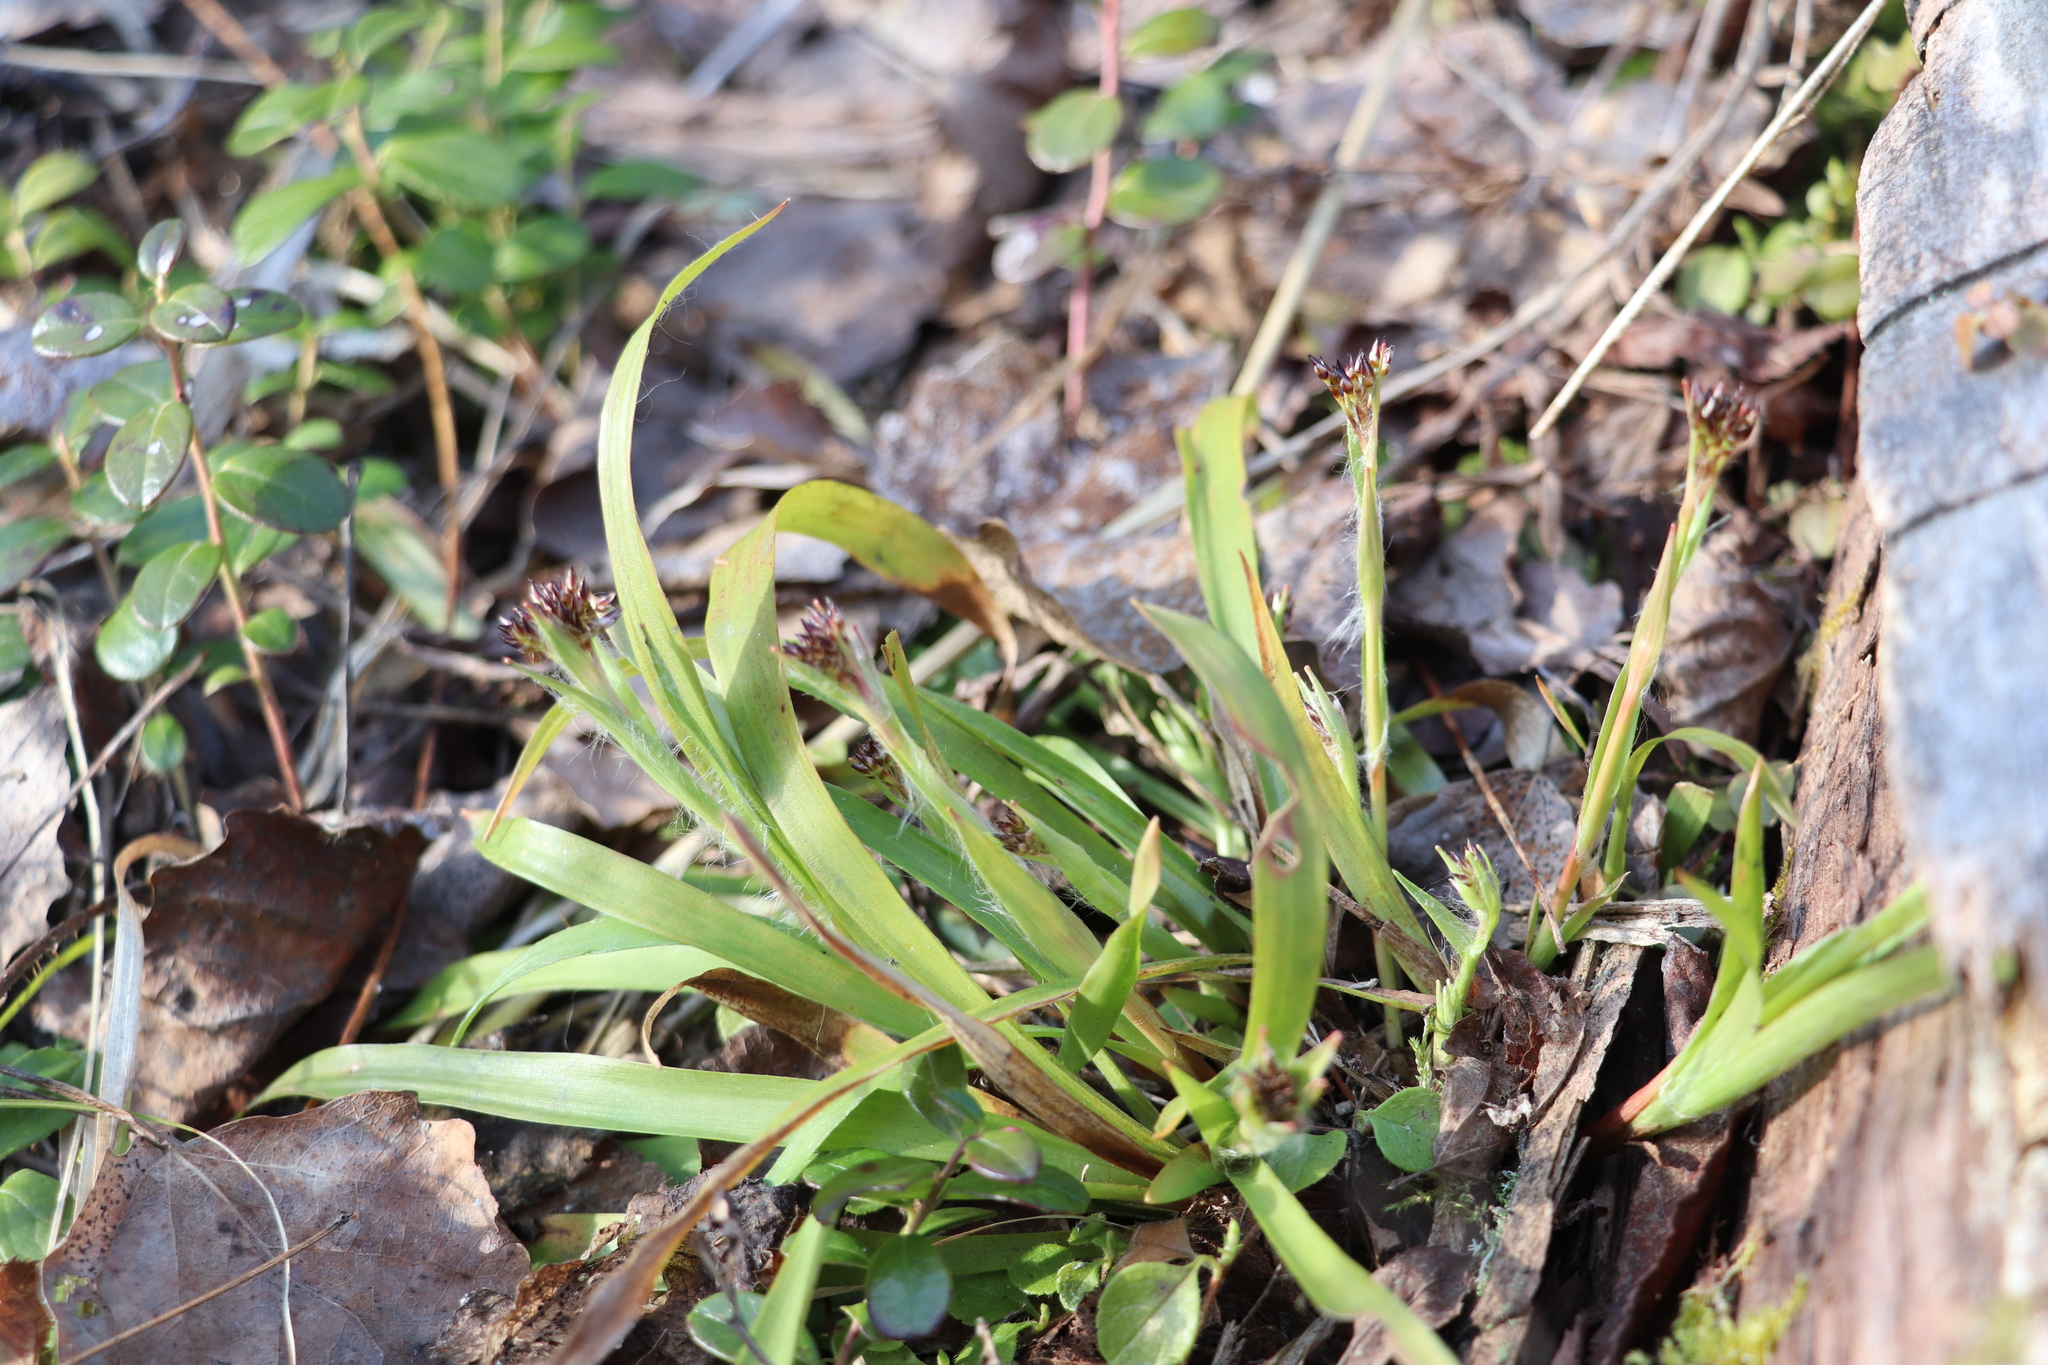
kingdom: Plantae
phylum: Tracheophyta
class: Liliopsida
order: Poales
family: Juncaceae
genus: Luzula
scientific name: Luzula pilosa
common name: Hairy wood-rush
